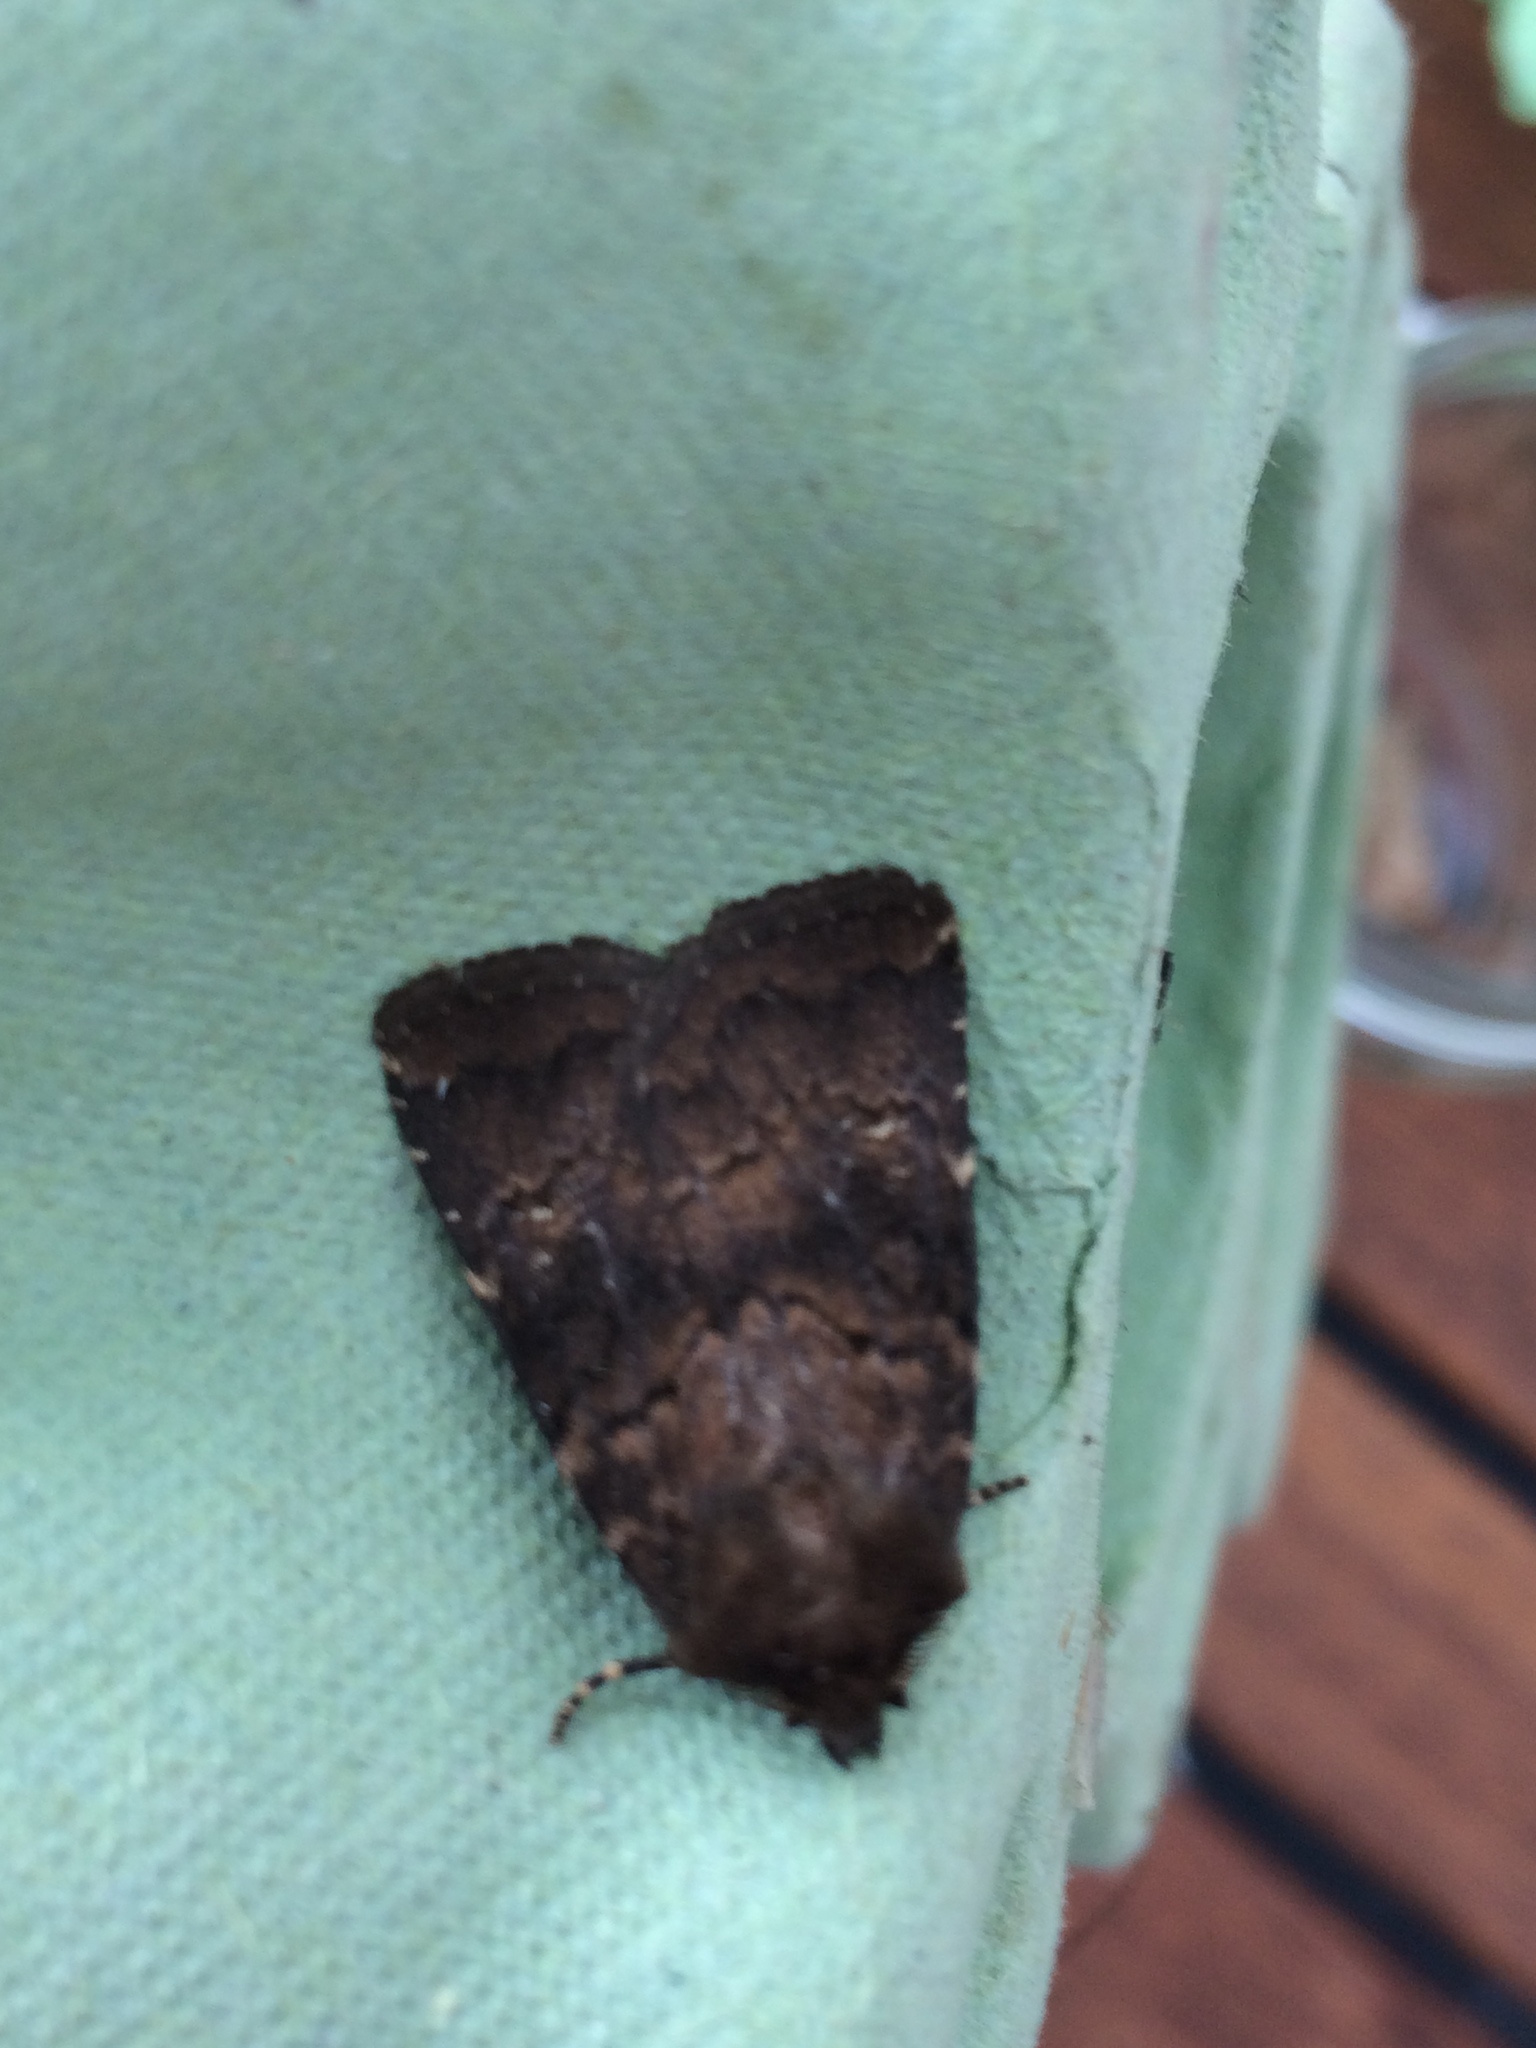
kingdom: Animalia
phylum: Arthropoda
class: Insecta
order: Lepidoptera
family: Noctuidae
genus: Charanyca
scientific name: Charanyca ferruginea
